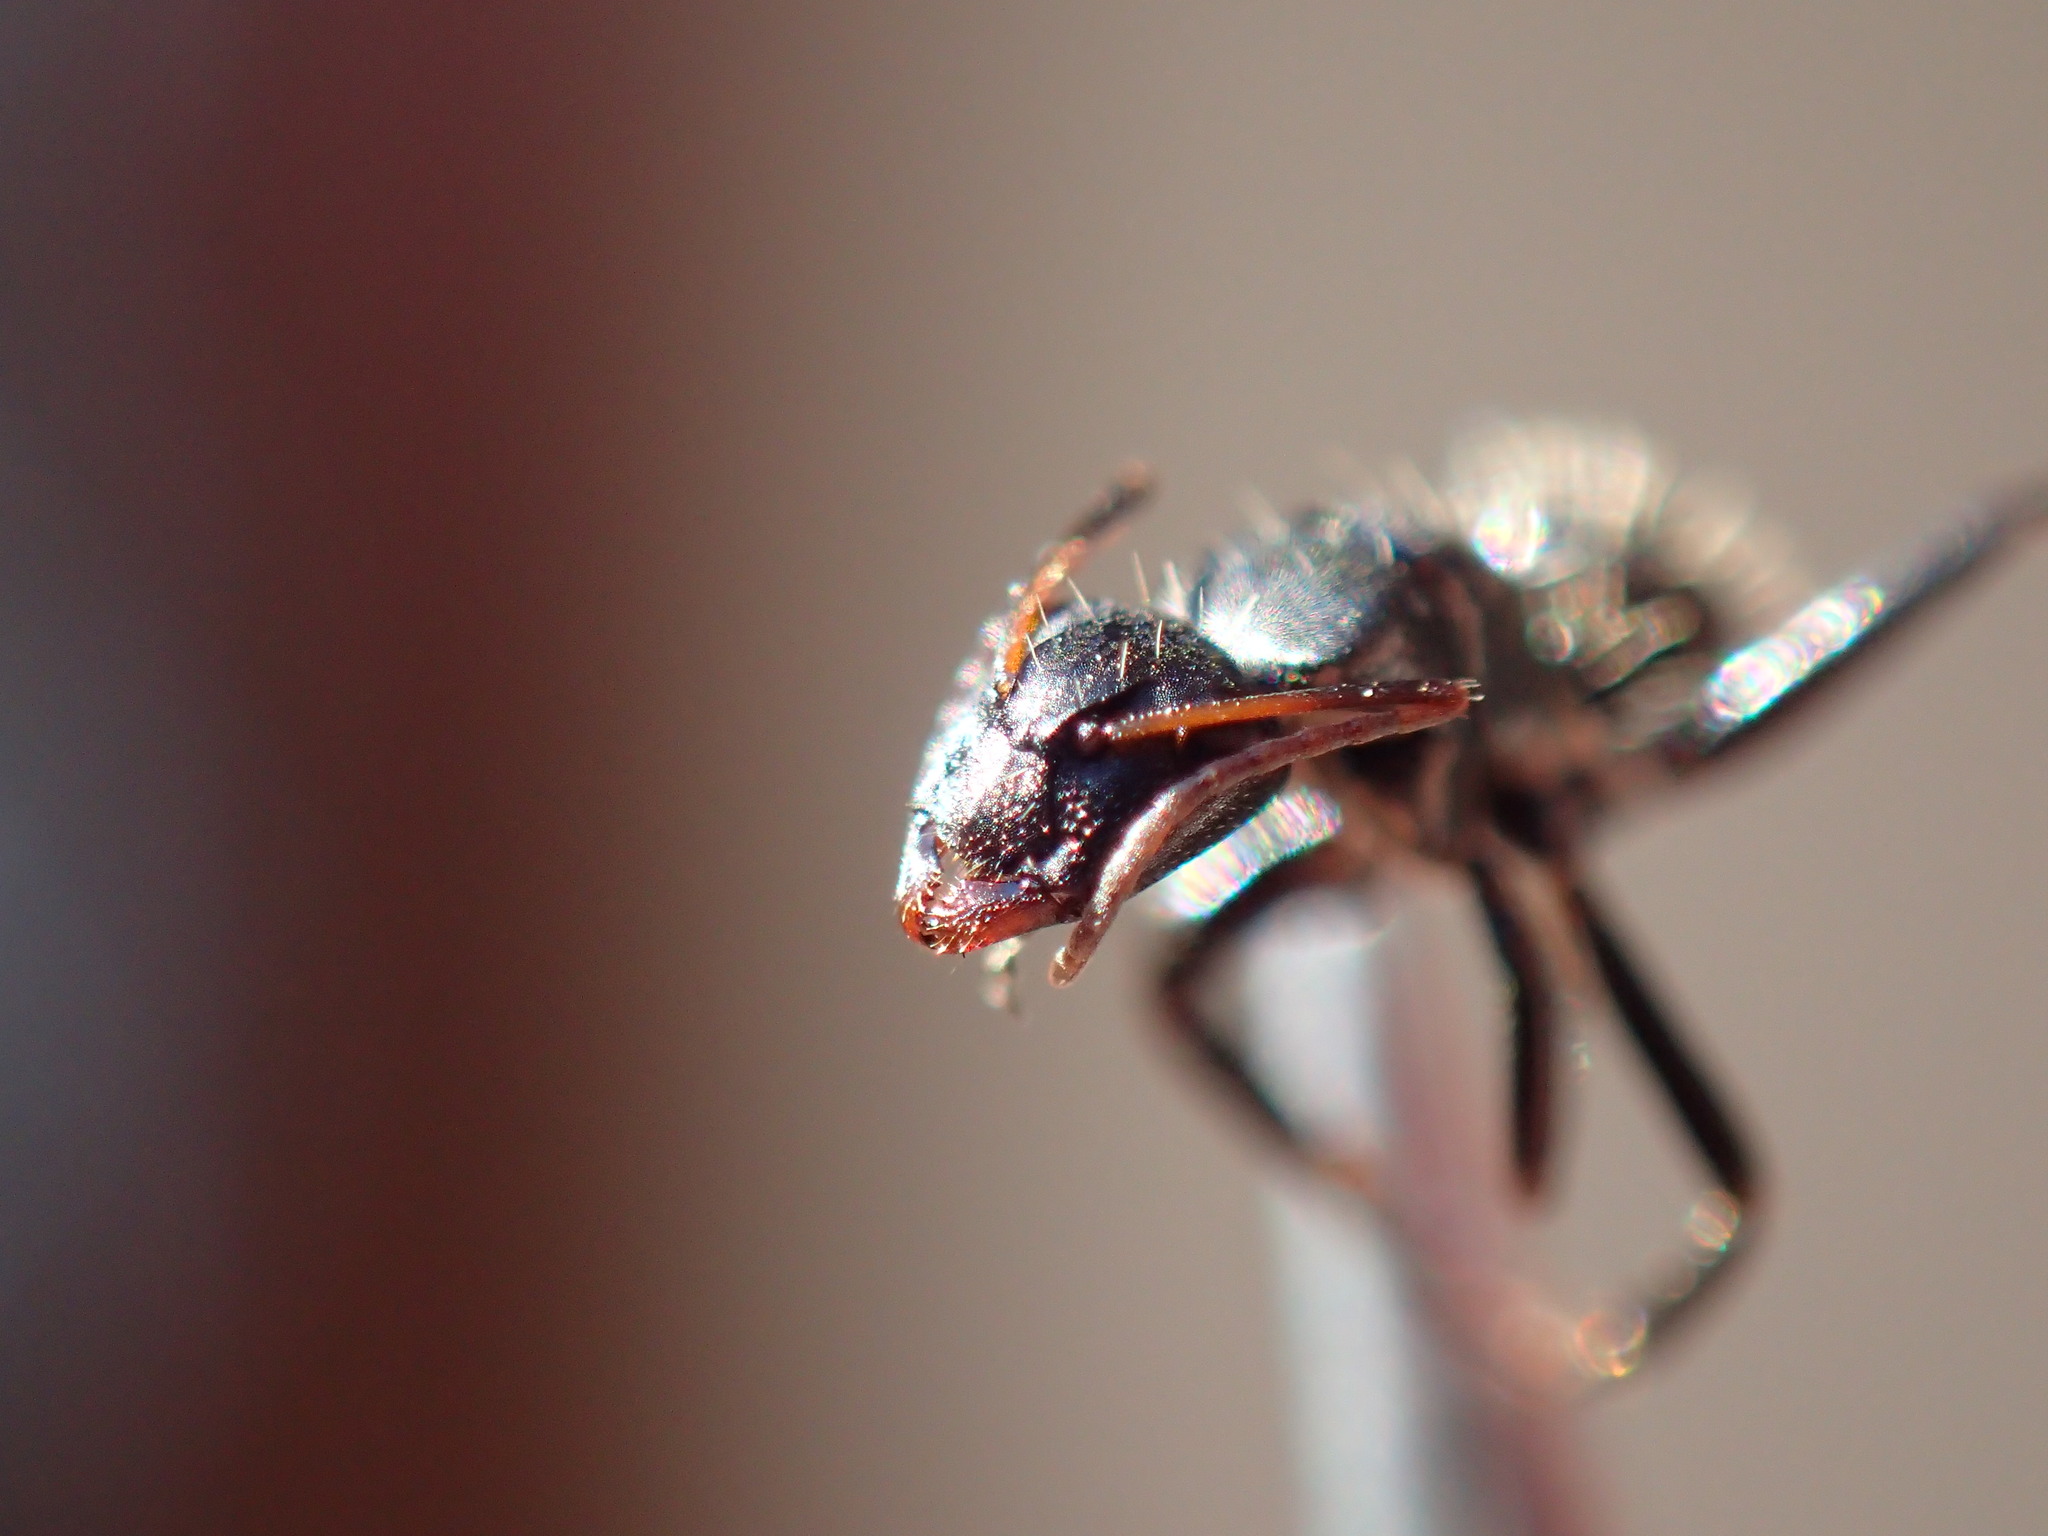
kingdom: Animalia
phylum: Arthropoda
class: Insecta
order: Hymenoptera
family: Formicidae
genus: Camponotus
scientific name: Camponotus postoculatus
